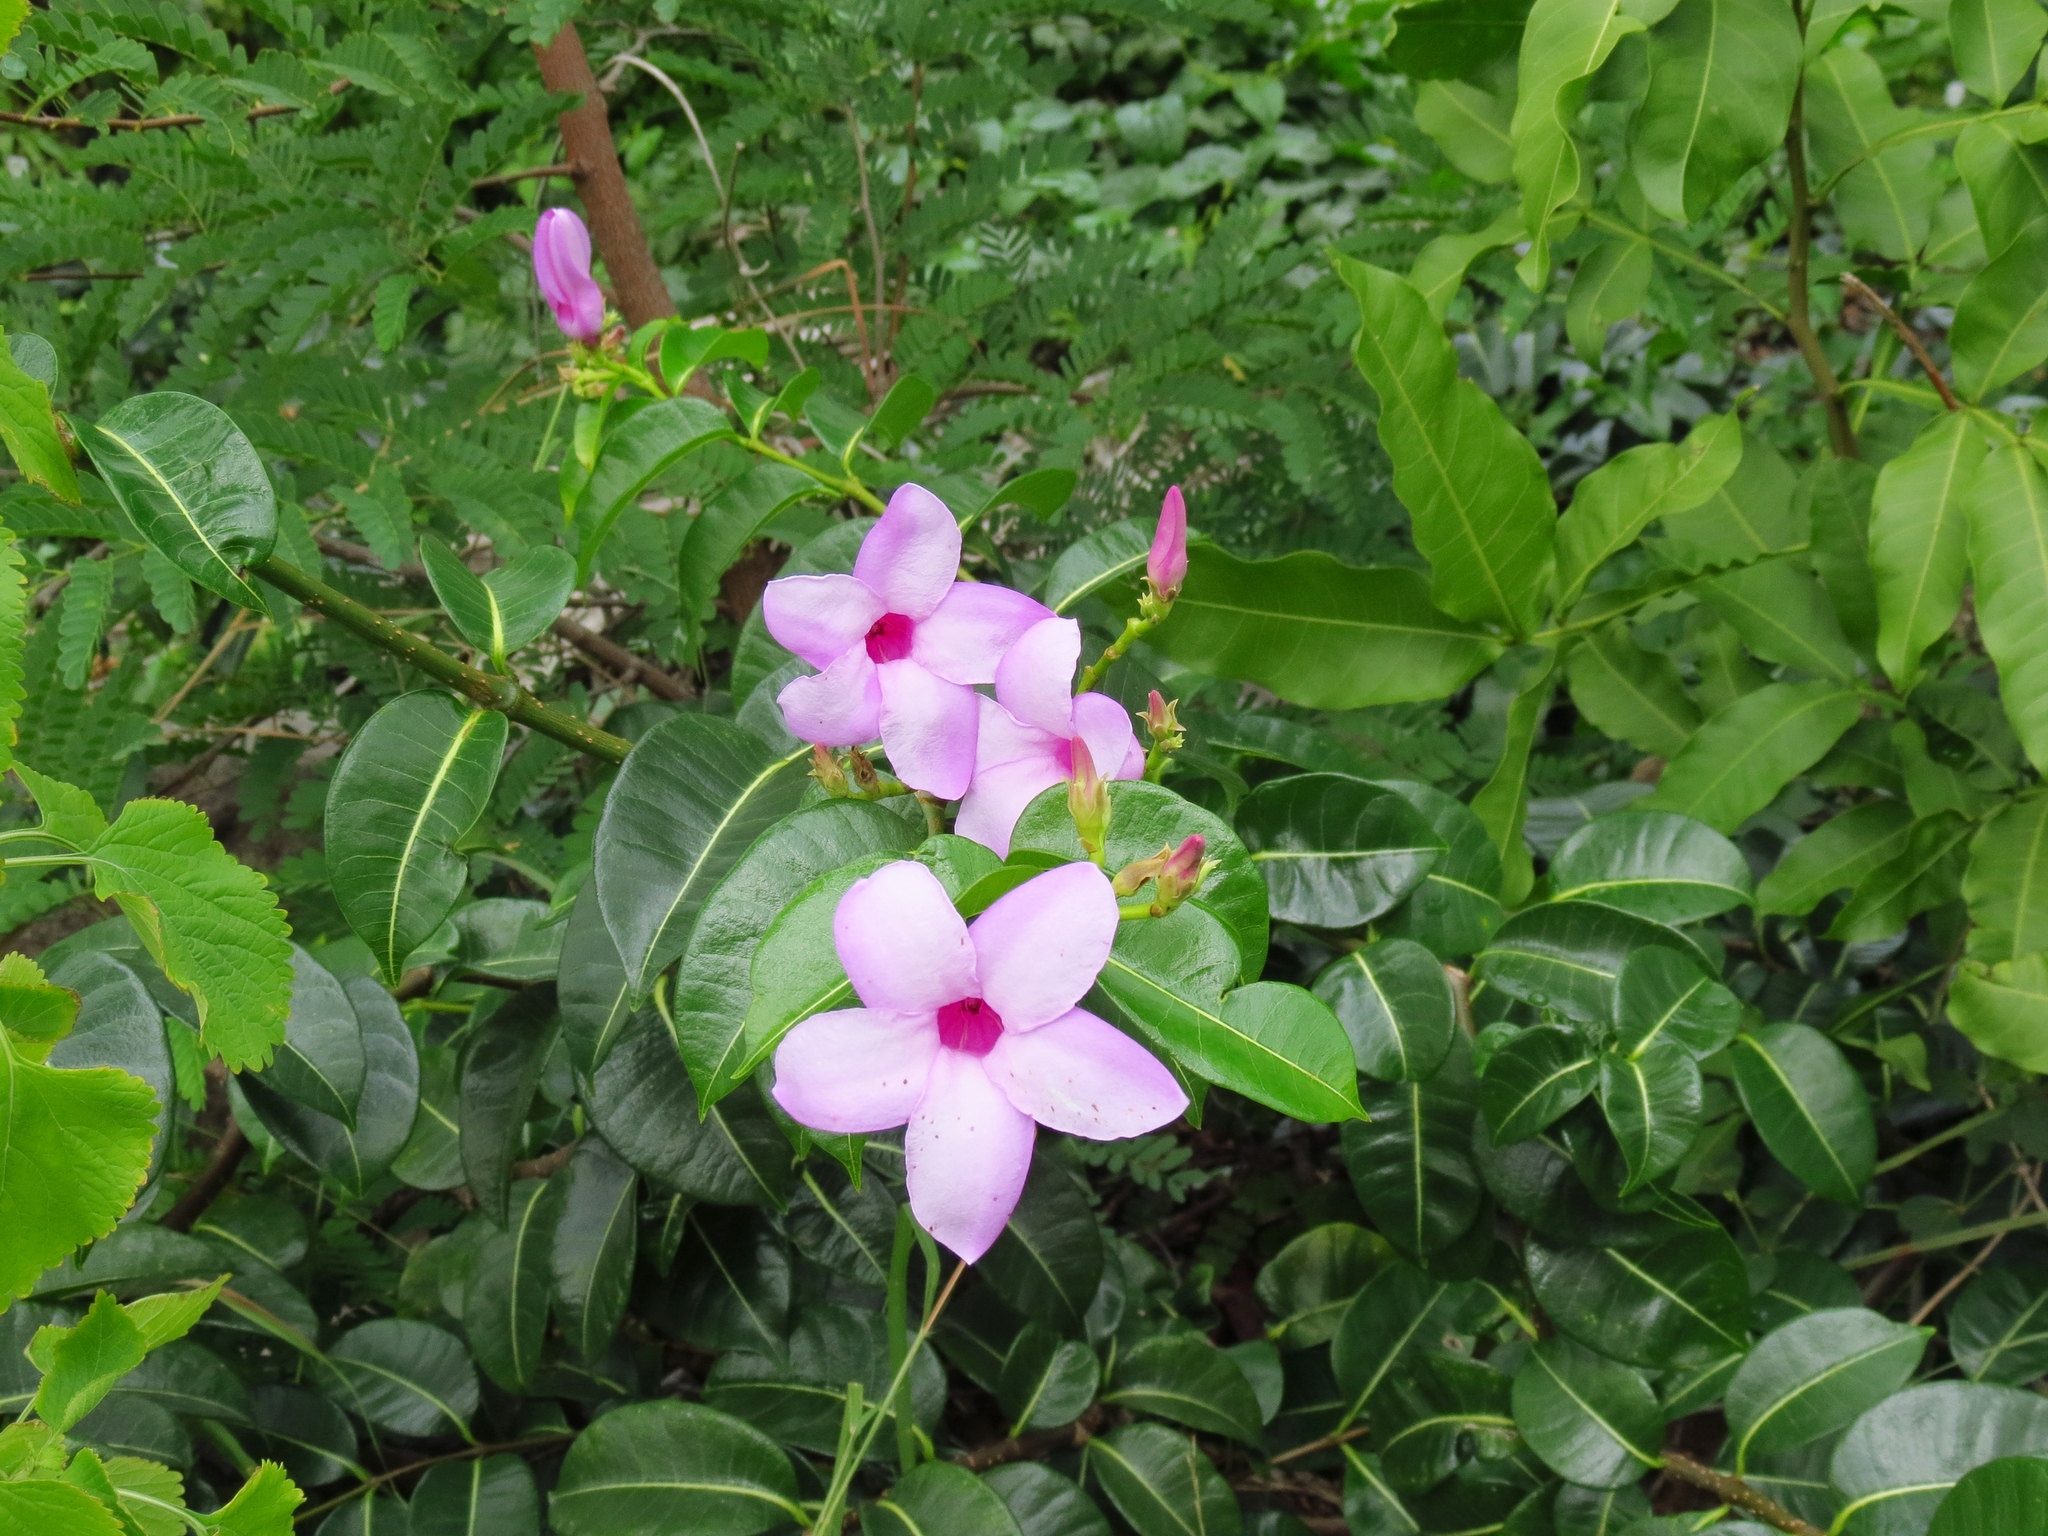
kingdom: Plantae
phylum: Tracheophyta
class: Magnoliopsida
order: Gentianales
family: Apocynaceae
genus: Cryptostegia
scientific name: Cryptostegia madagascariensis
